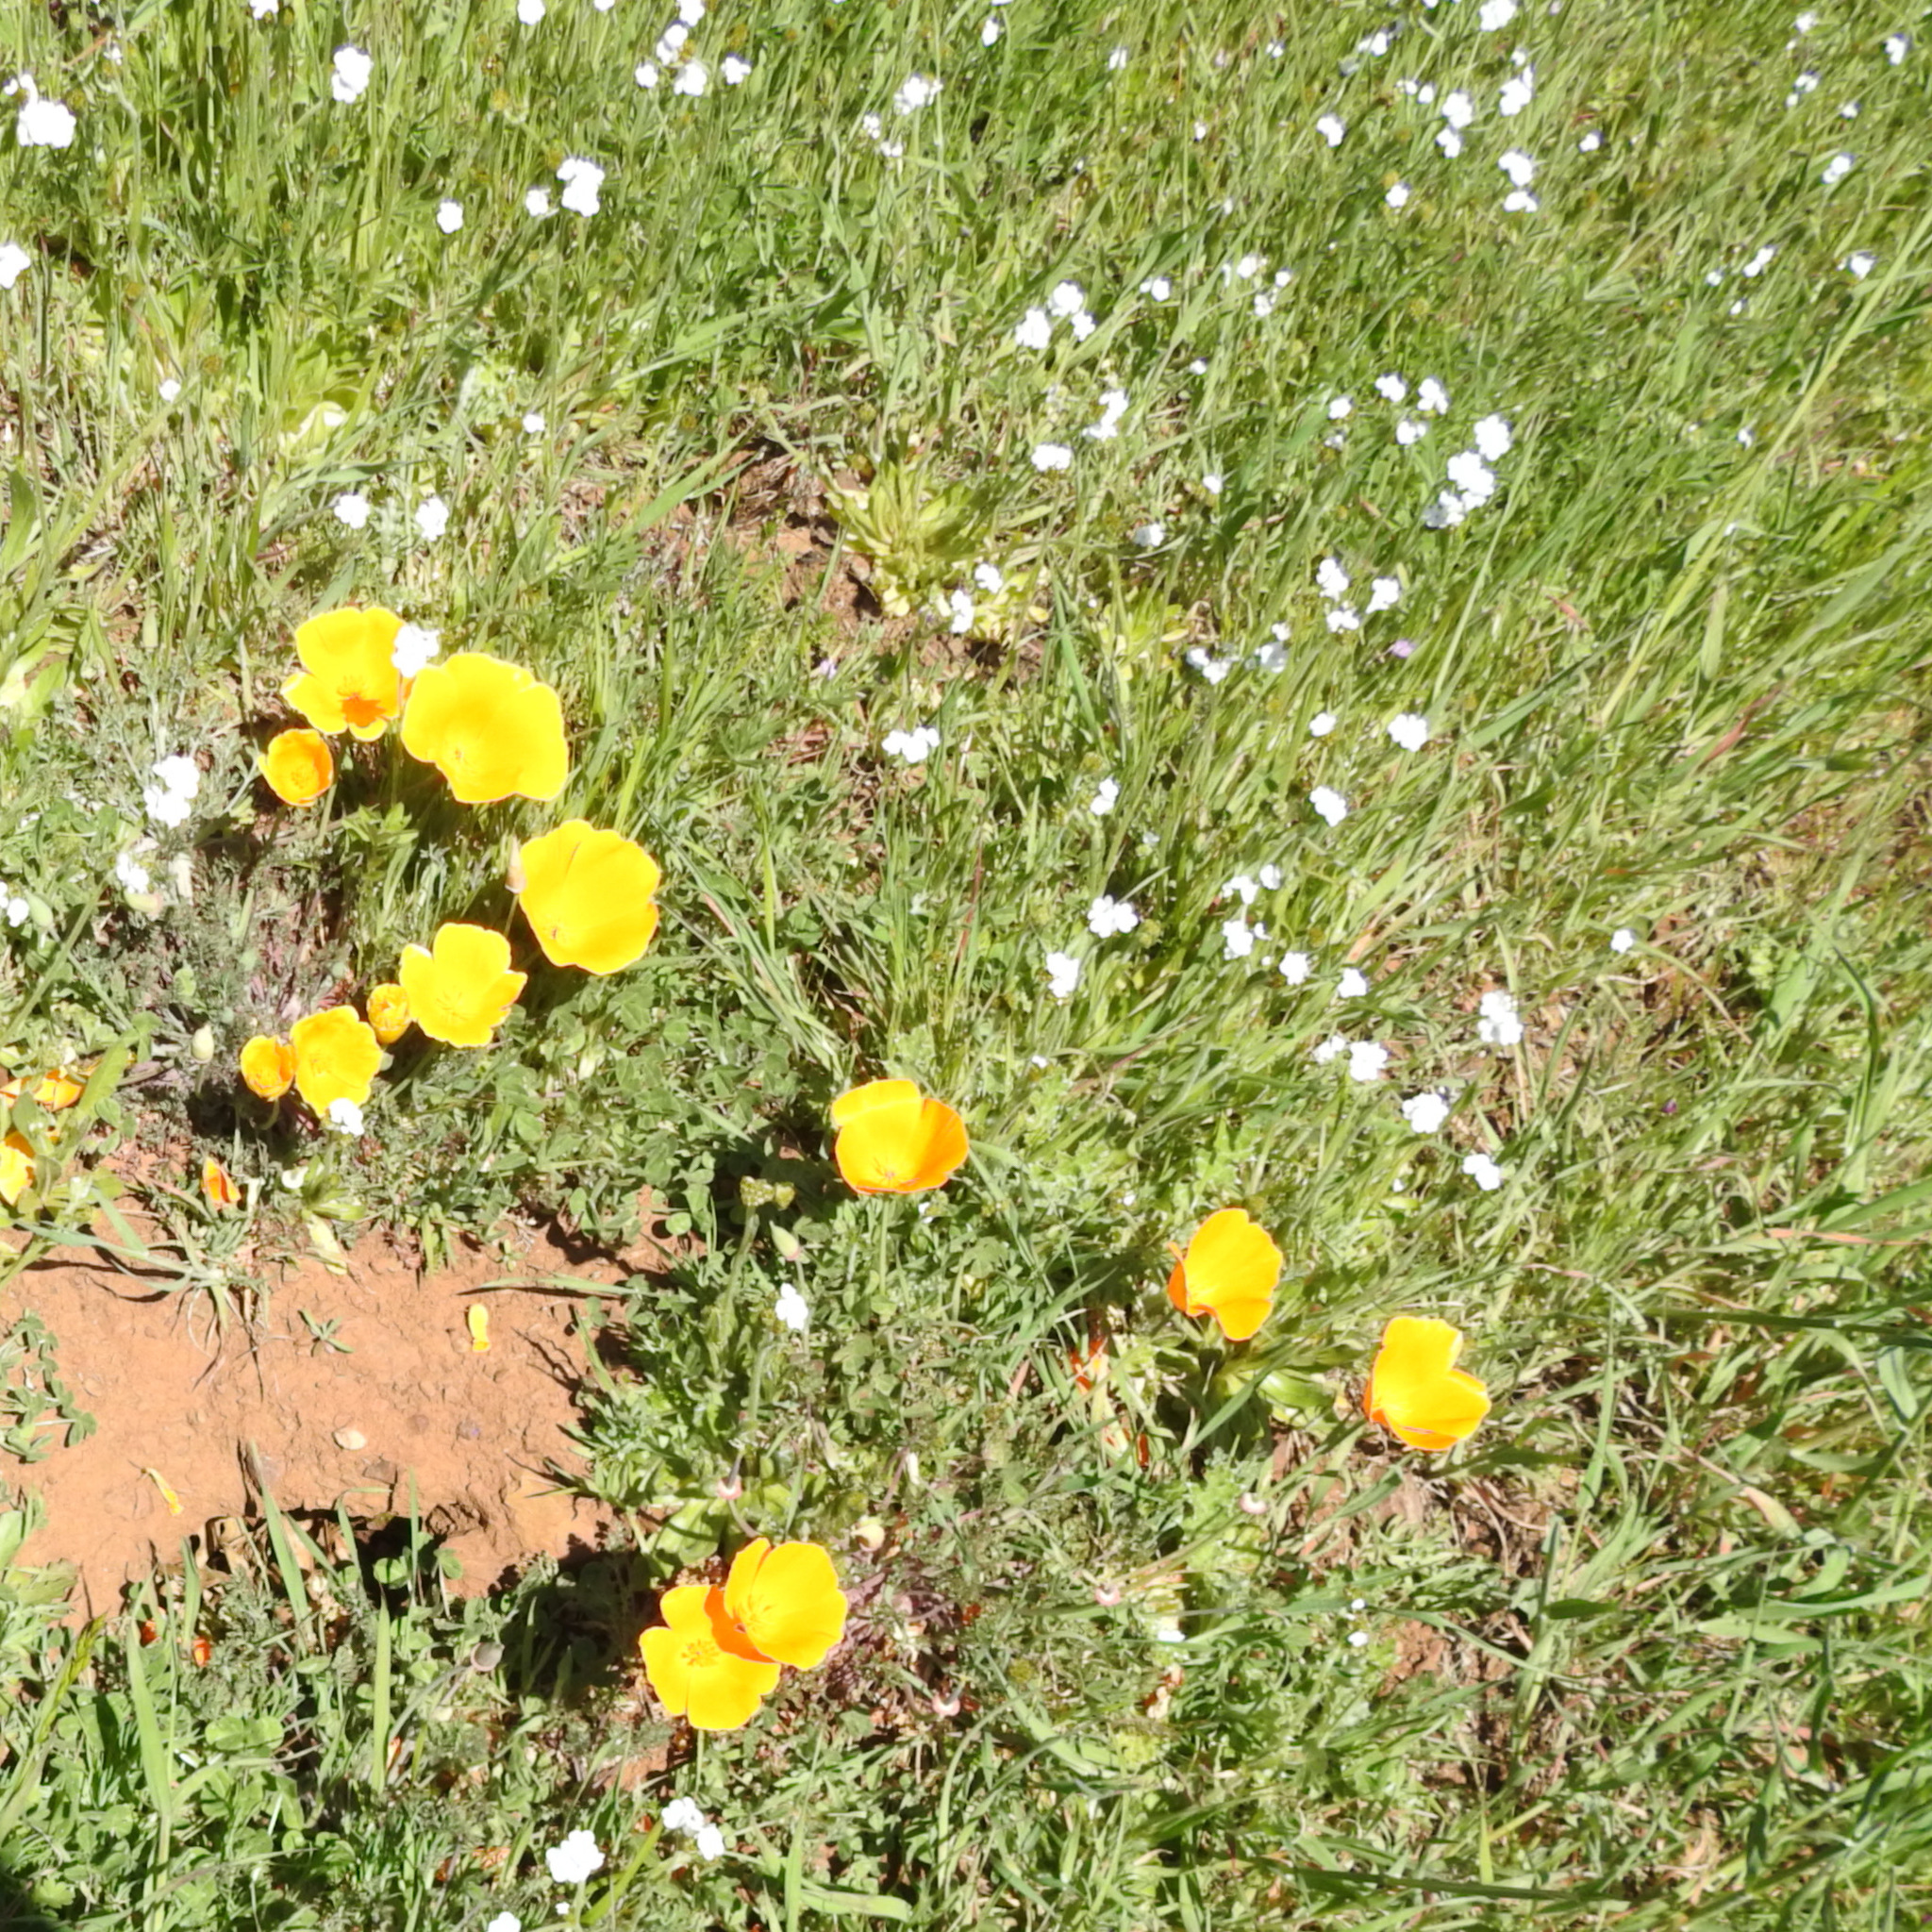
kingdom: Plantae
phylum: Tracheophyta
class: Magnoliopsida
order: Ranunculales
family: Papaveraceae
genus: Eschscholzia
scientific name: Eschscholzia californica
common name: California poppy
